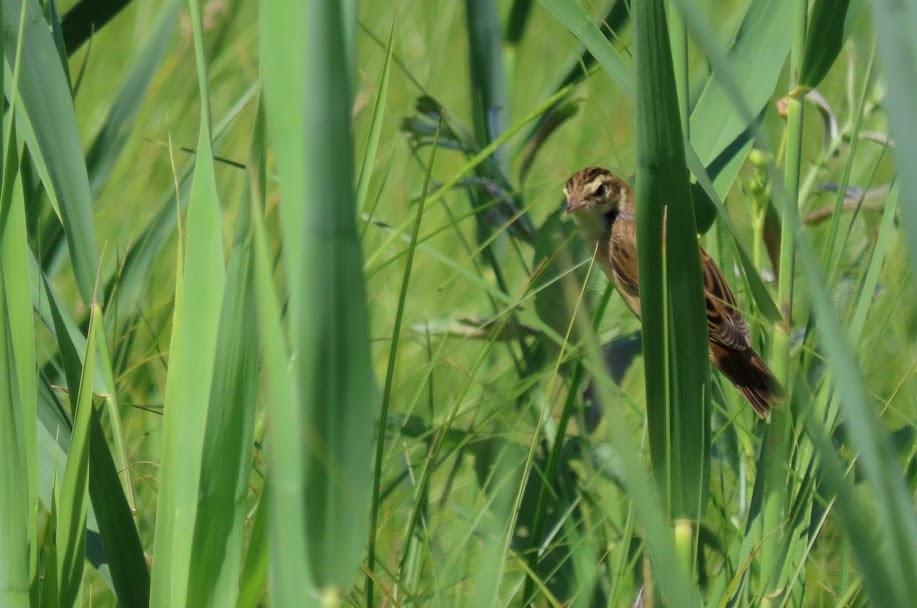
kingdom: Animalia
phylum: Chordata
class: Aves
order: Passeriformes
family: Acrocephalidae
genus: Acrocephalus
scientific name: Acrocephalus schoenobaenus
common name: Sedge warbler
